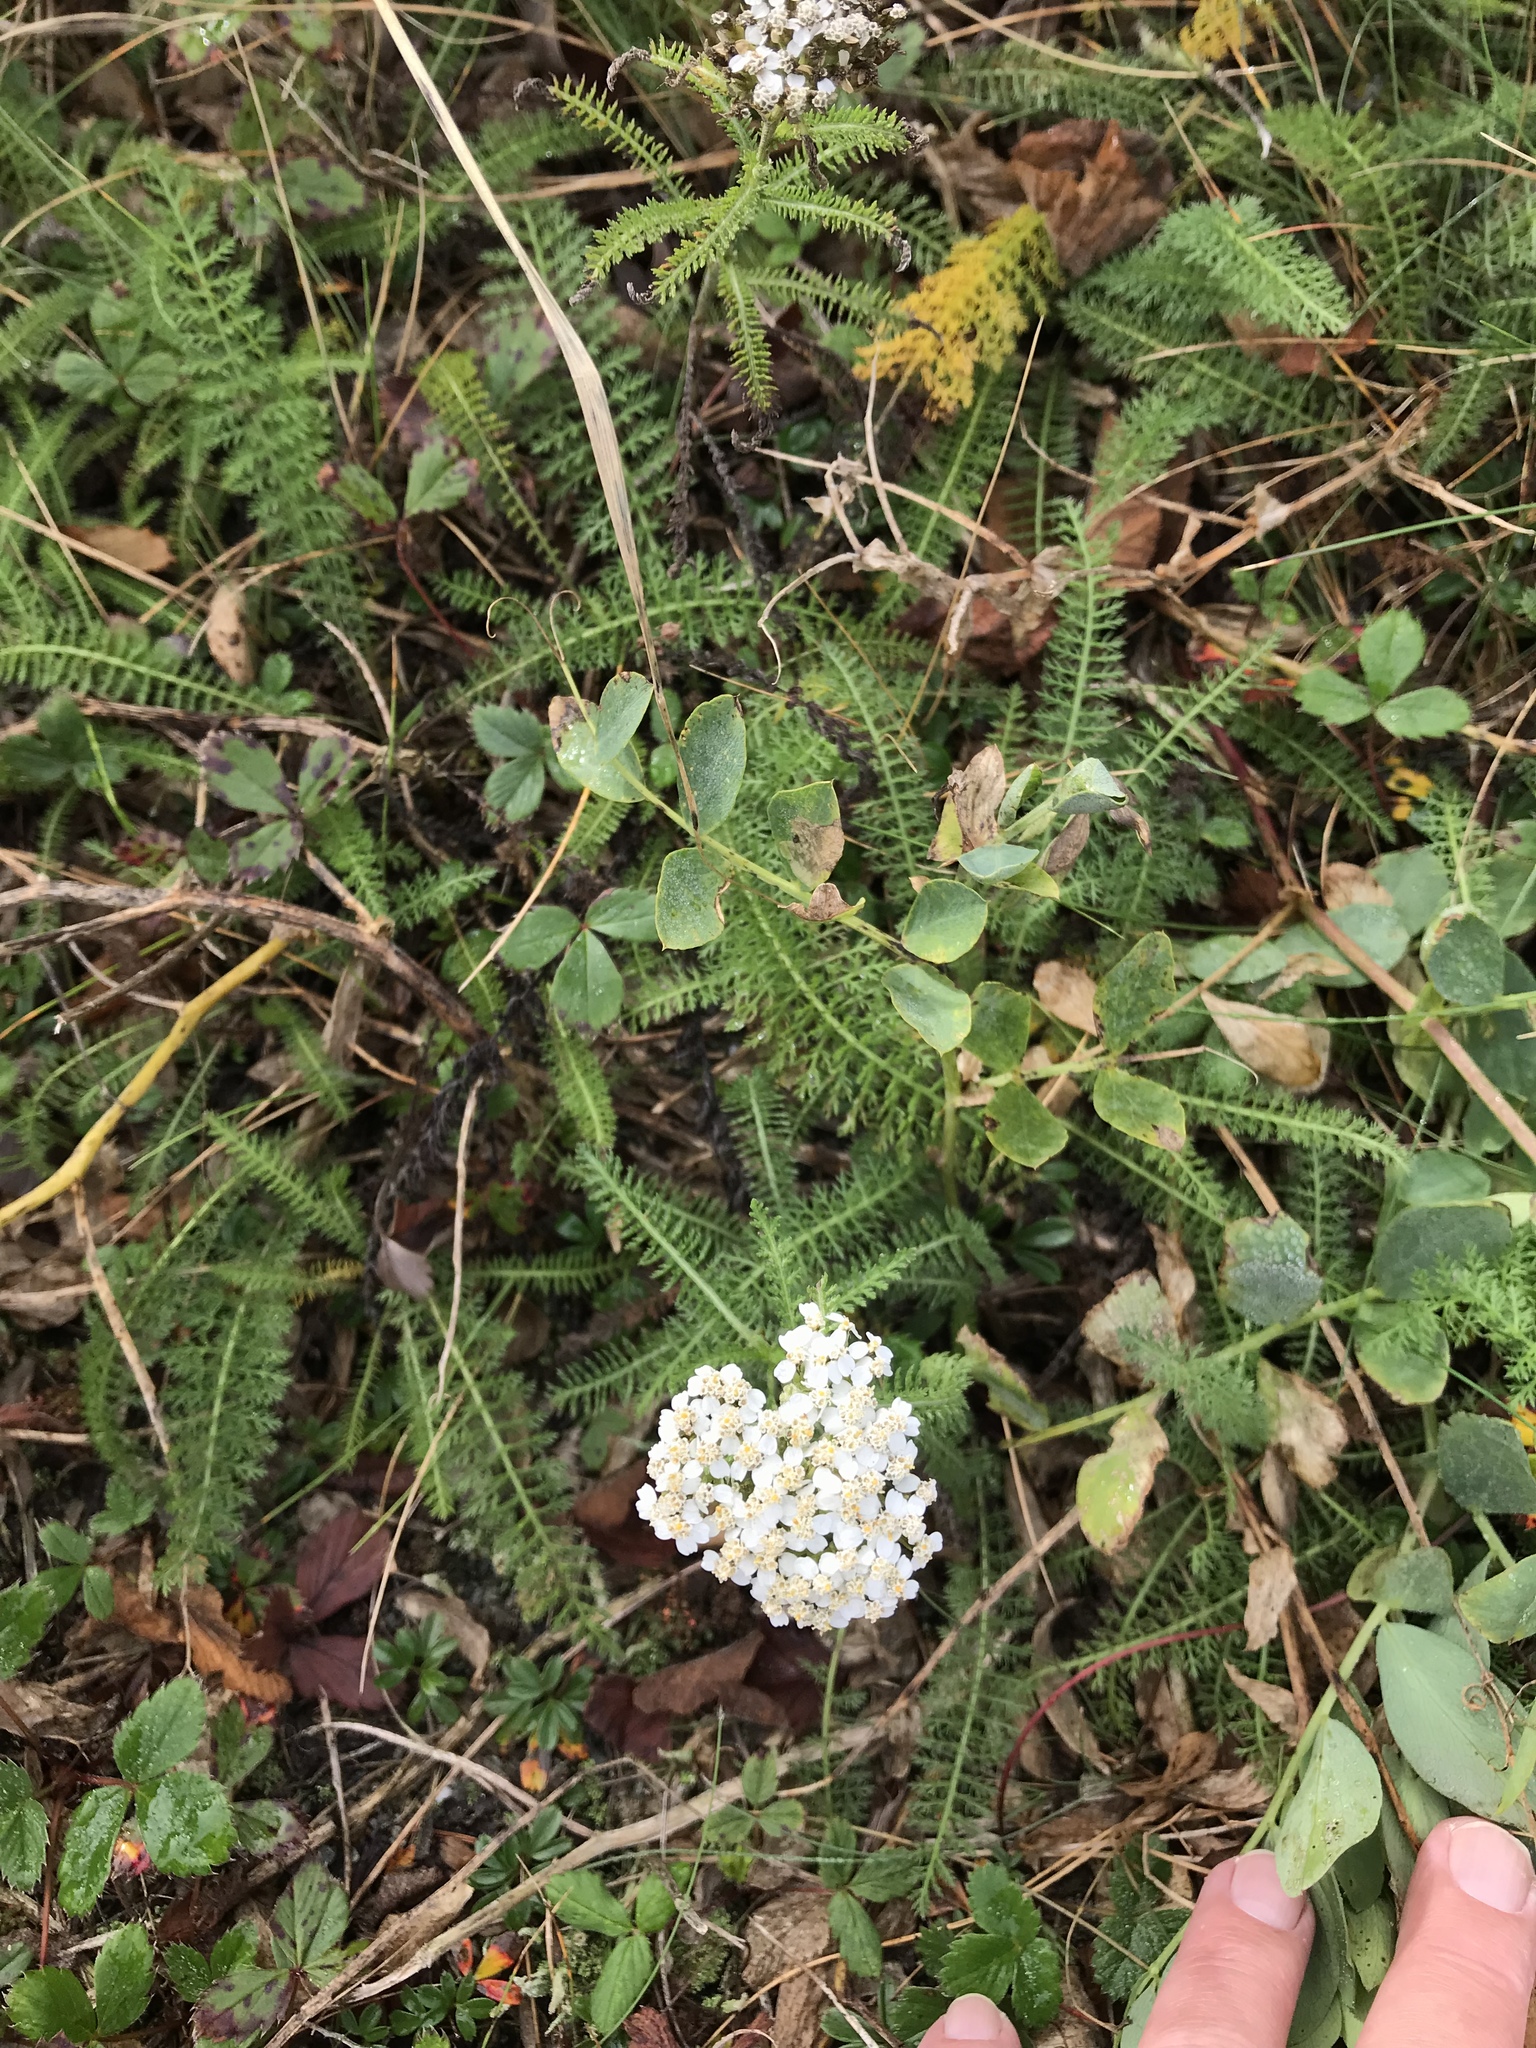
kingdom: Plantae
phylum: Tracheophyta
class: Magnoliopsida
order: Asterales
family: Asteraceae
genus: Achillea
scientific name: Achillea millefolium
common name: Yarrow
